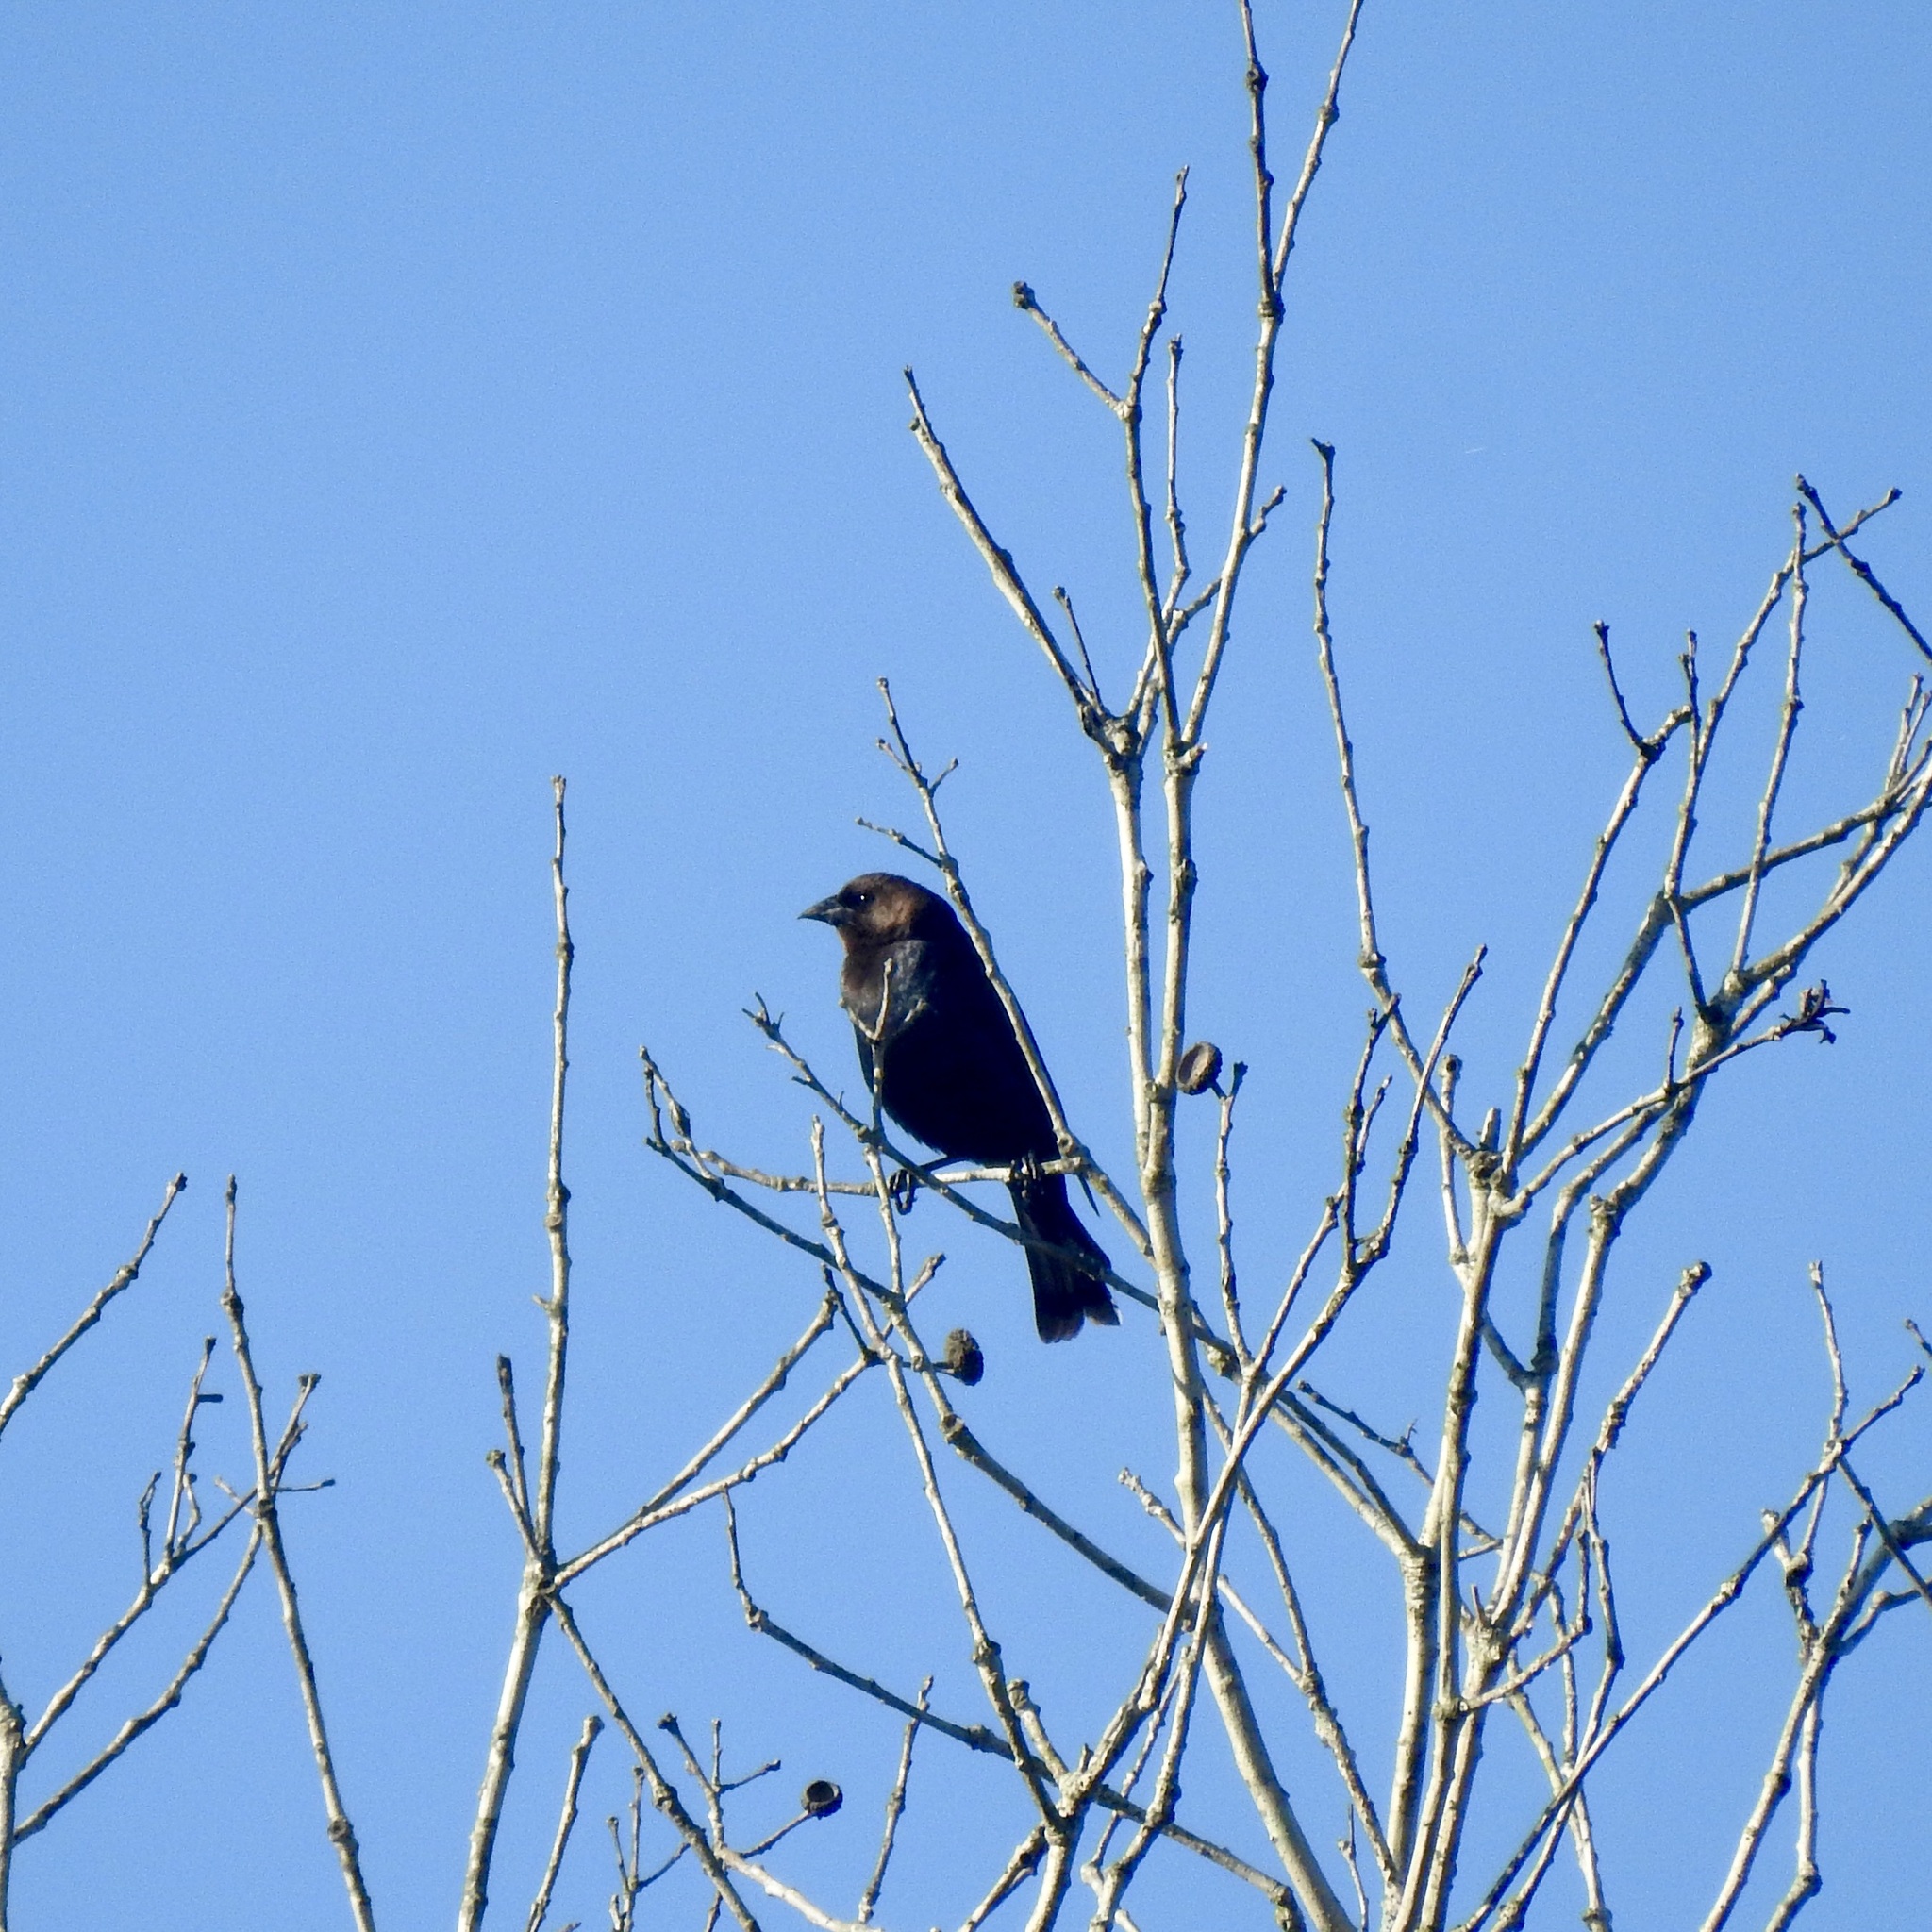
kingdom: Animalia
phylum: Chordata
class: Aves
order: Passeriformes
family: Icteridae
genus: Molothrus
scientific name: Molothrus ater
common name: Brown-headed cowbird
